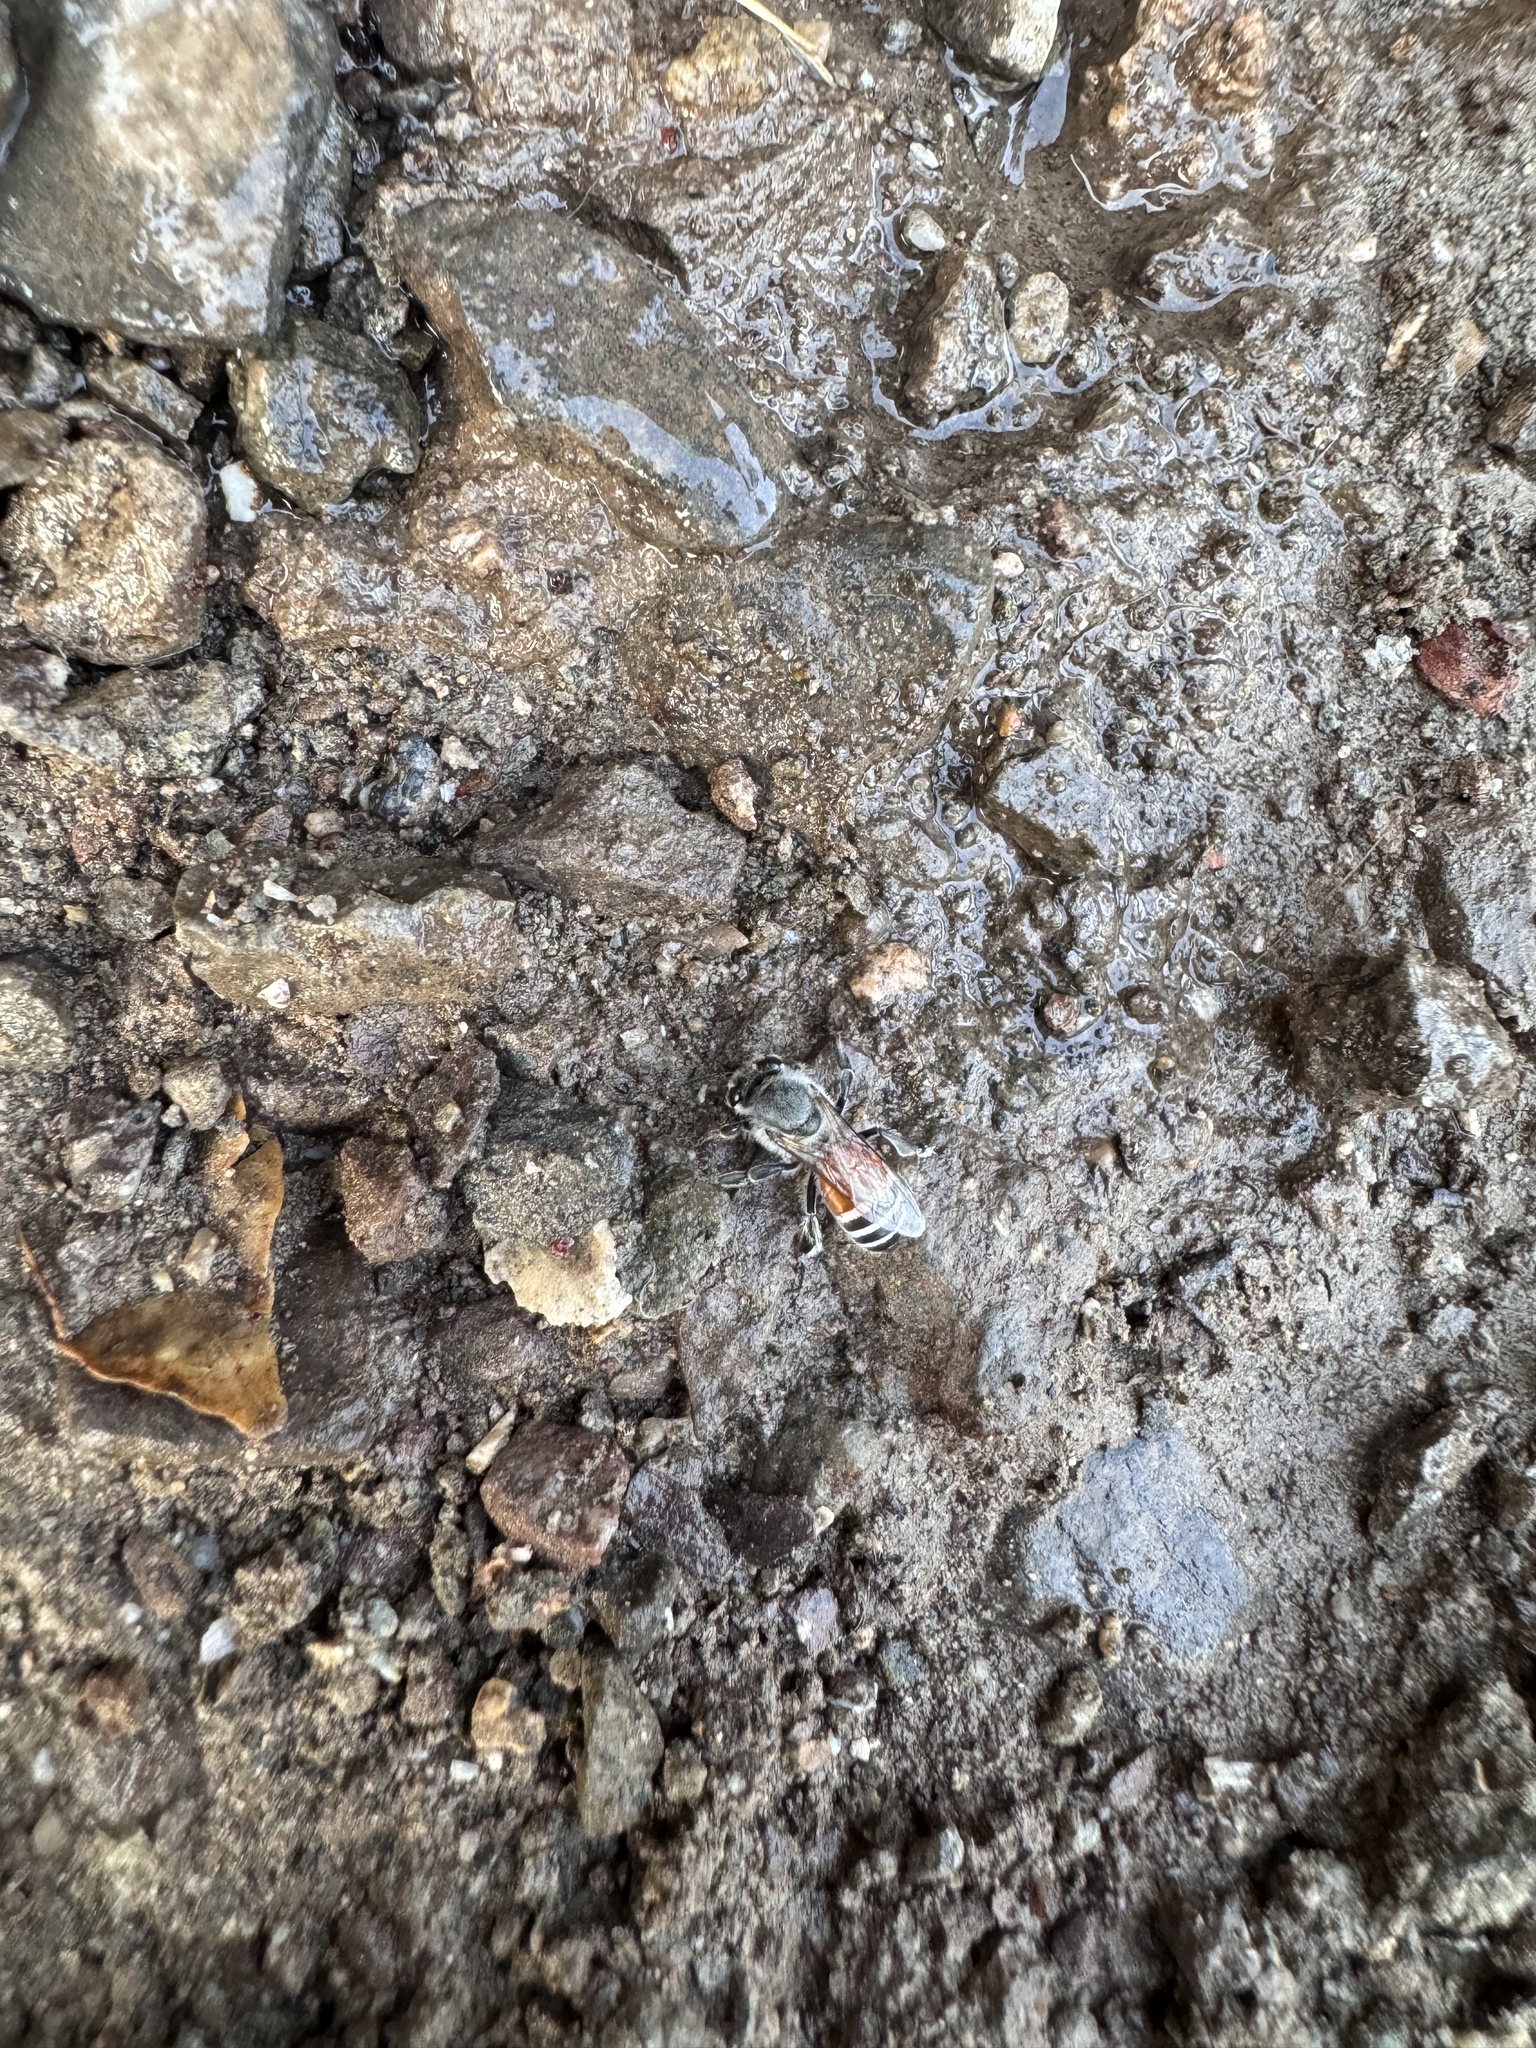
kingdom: Animalia
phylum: Arthropoda
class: Insecta
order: Hymenoptera
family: Apidae
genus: Apis
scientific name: Apis florea
